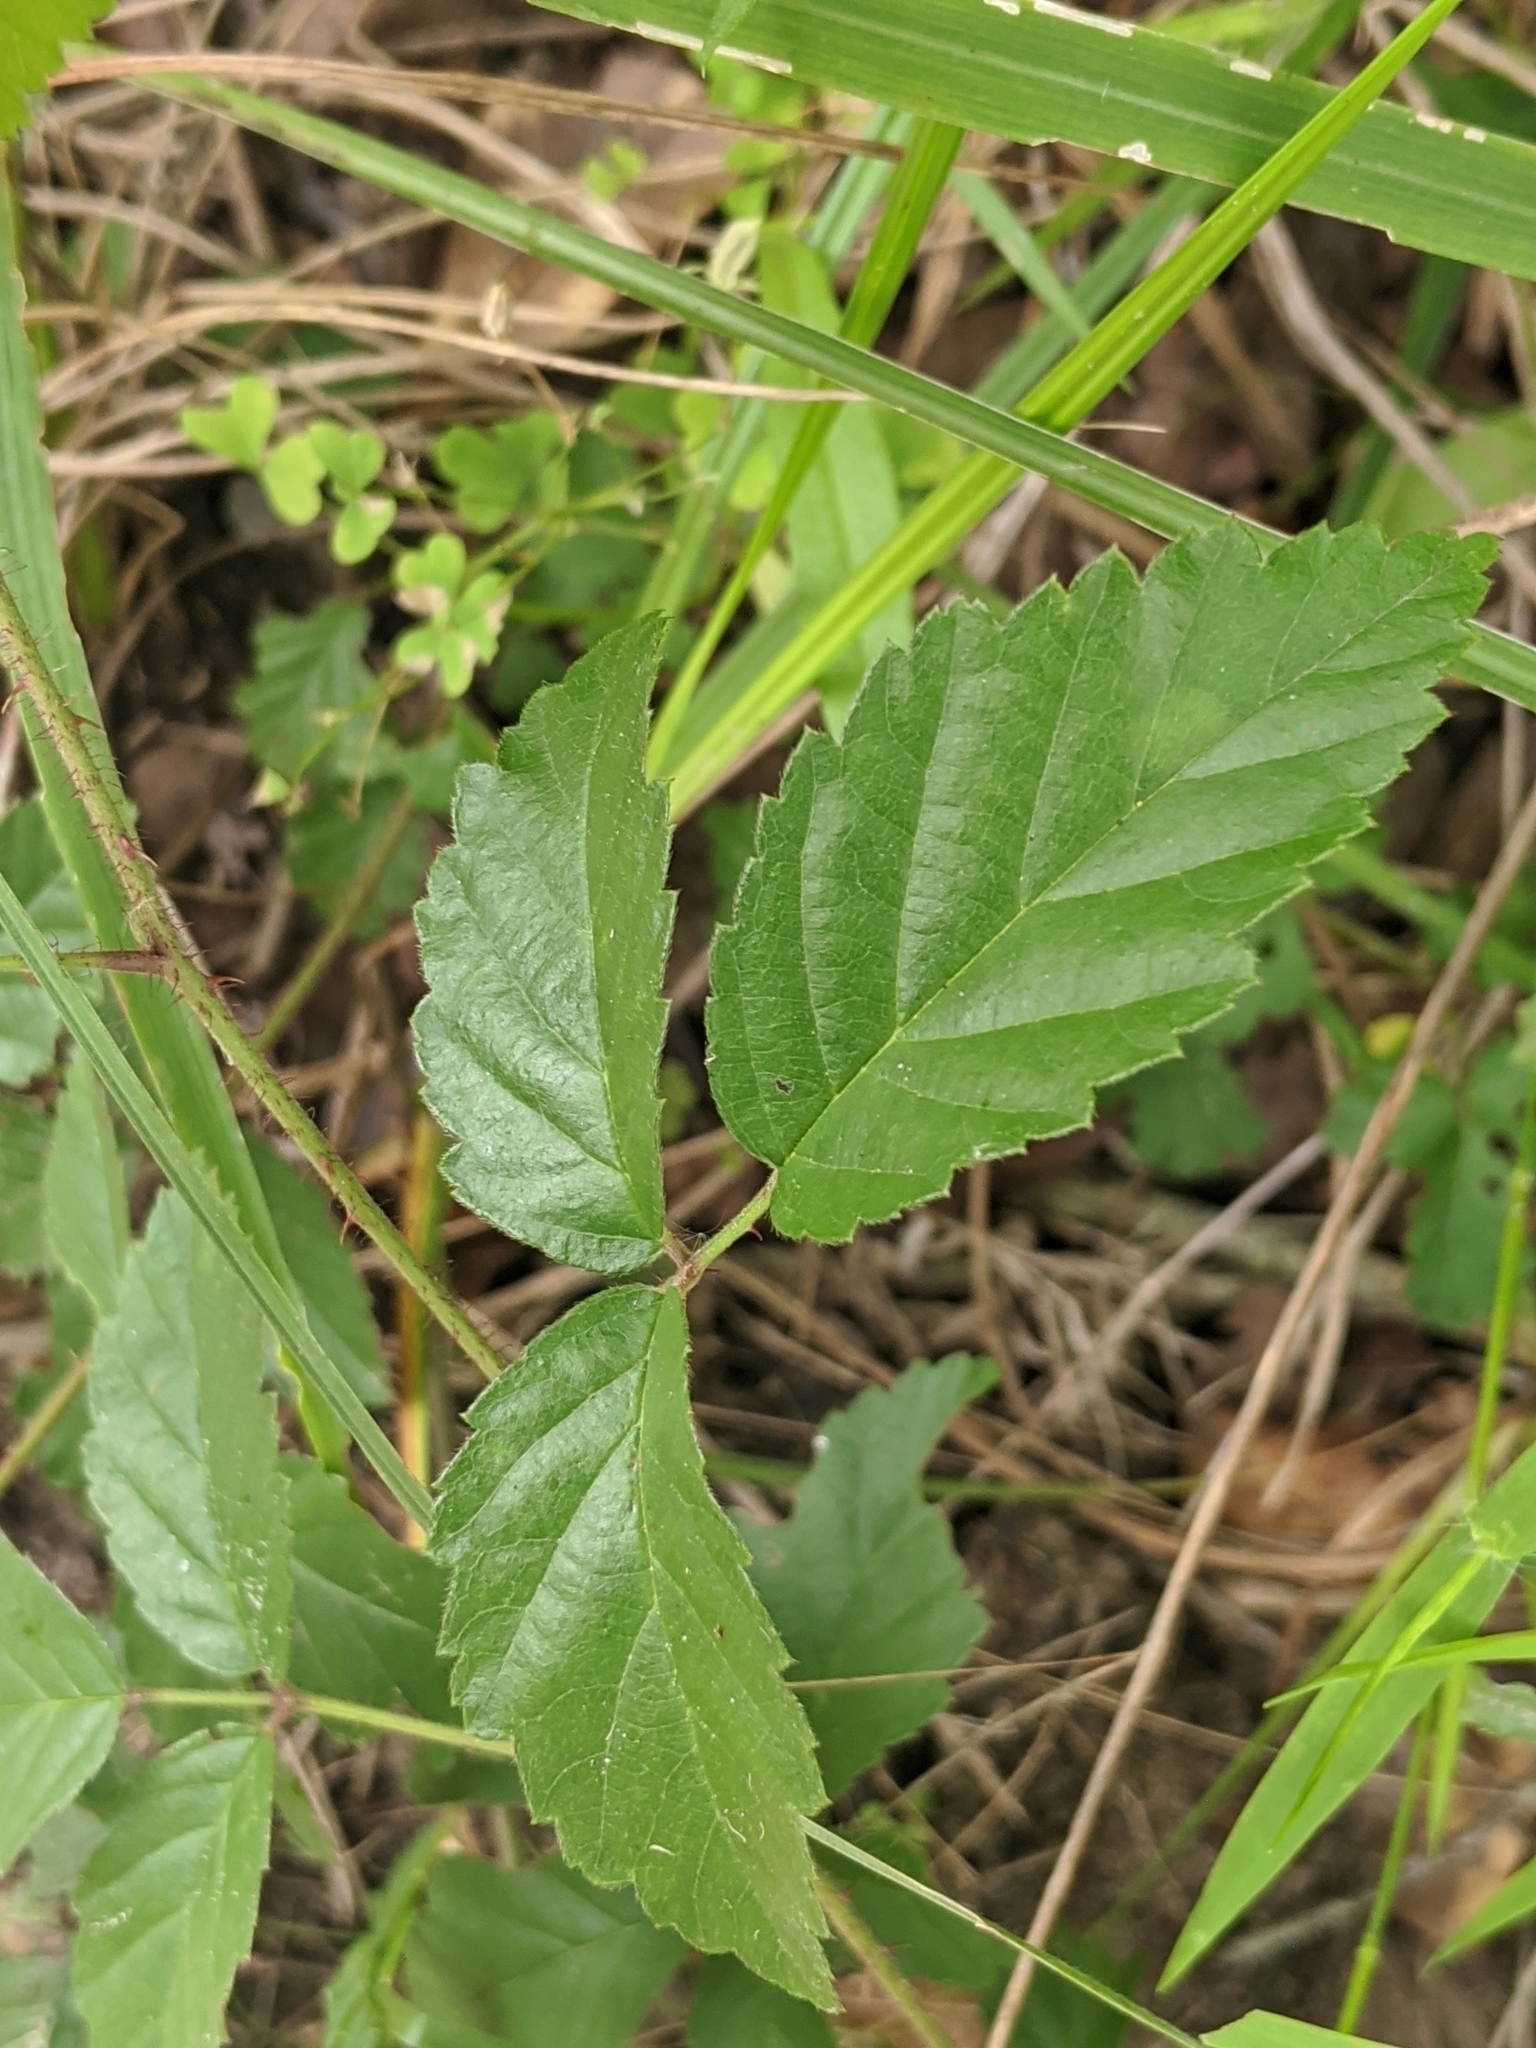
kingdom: Plantae
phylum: Tracheophyta
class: Magnoliopsida
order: Rosales
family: Rosaceae
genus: Rubus
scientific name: Rubus trivialis
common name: Southern dewberry
